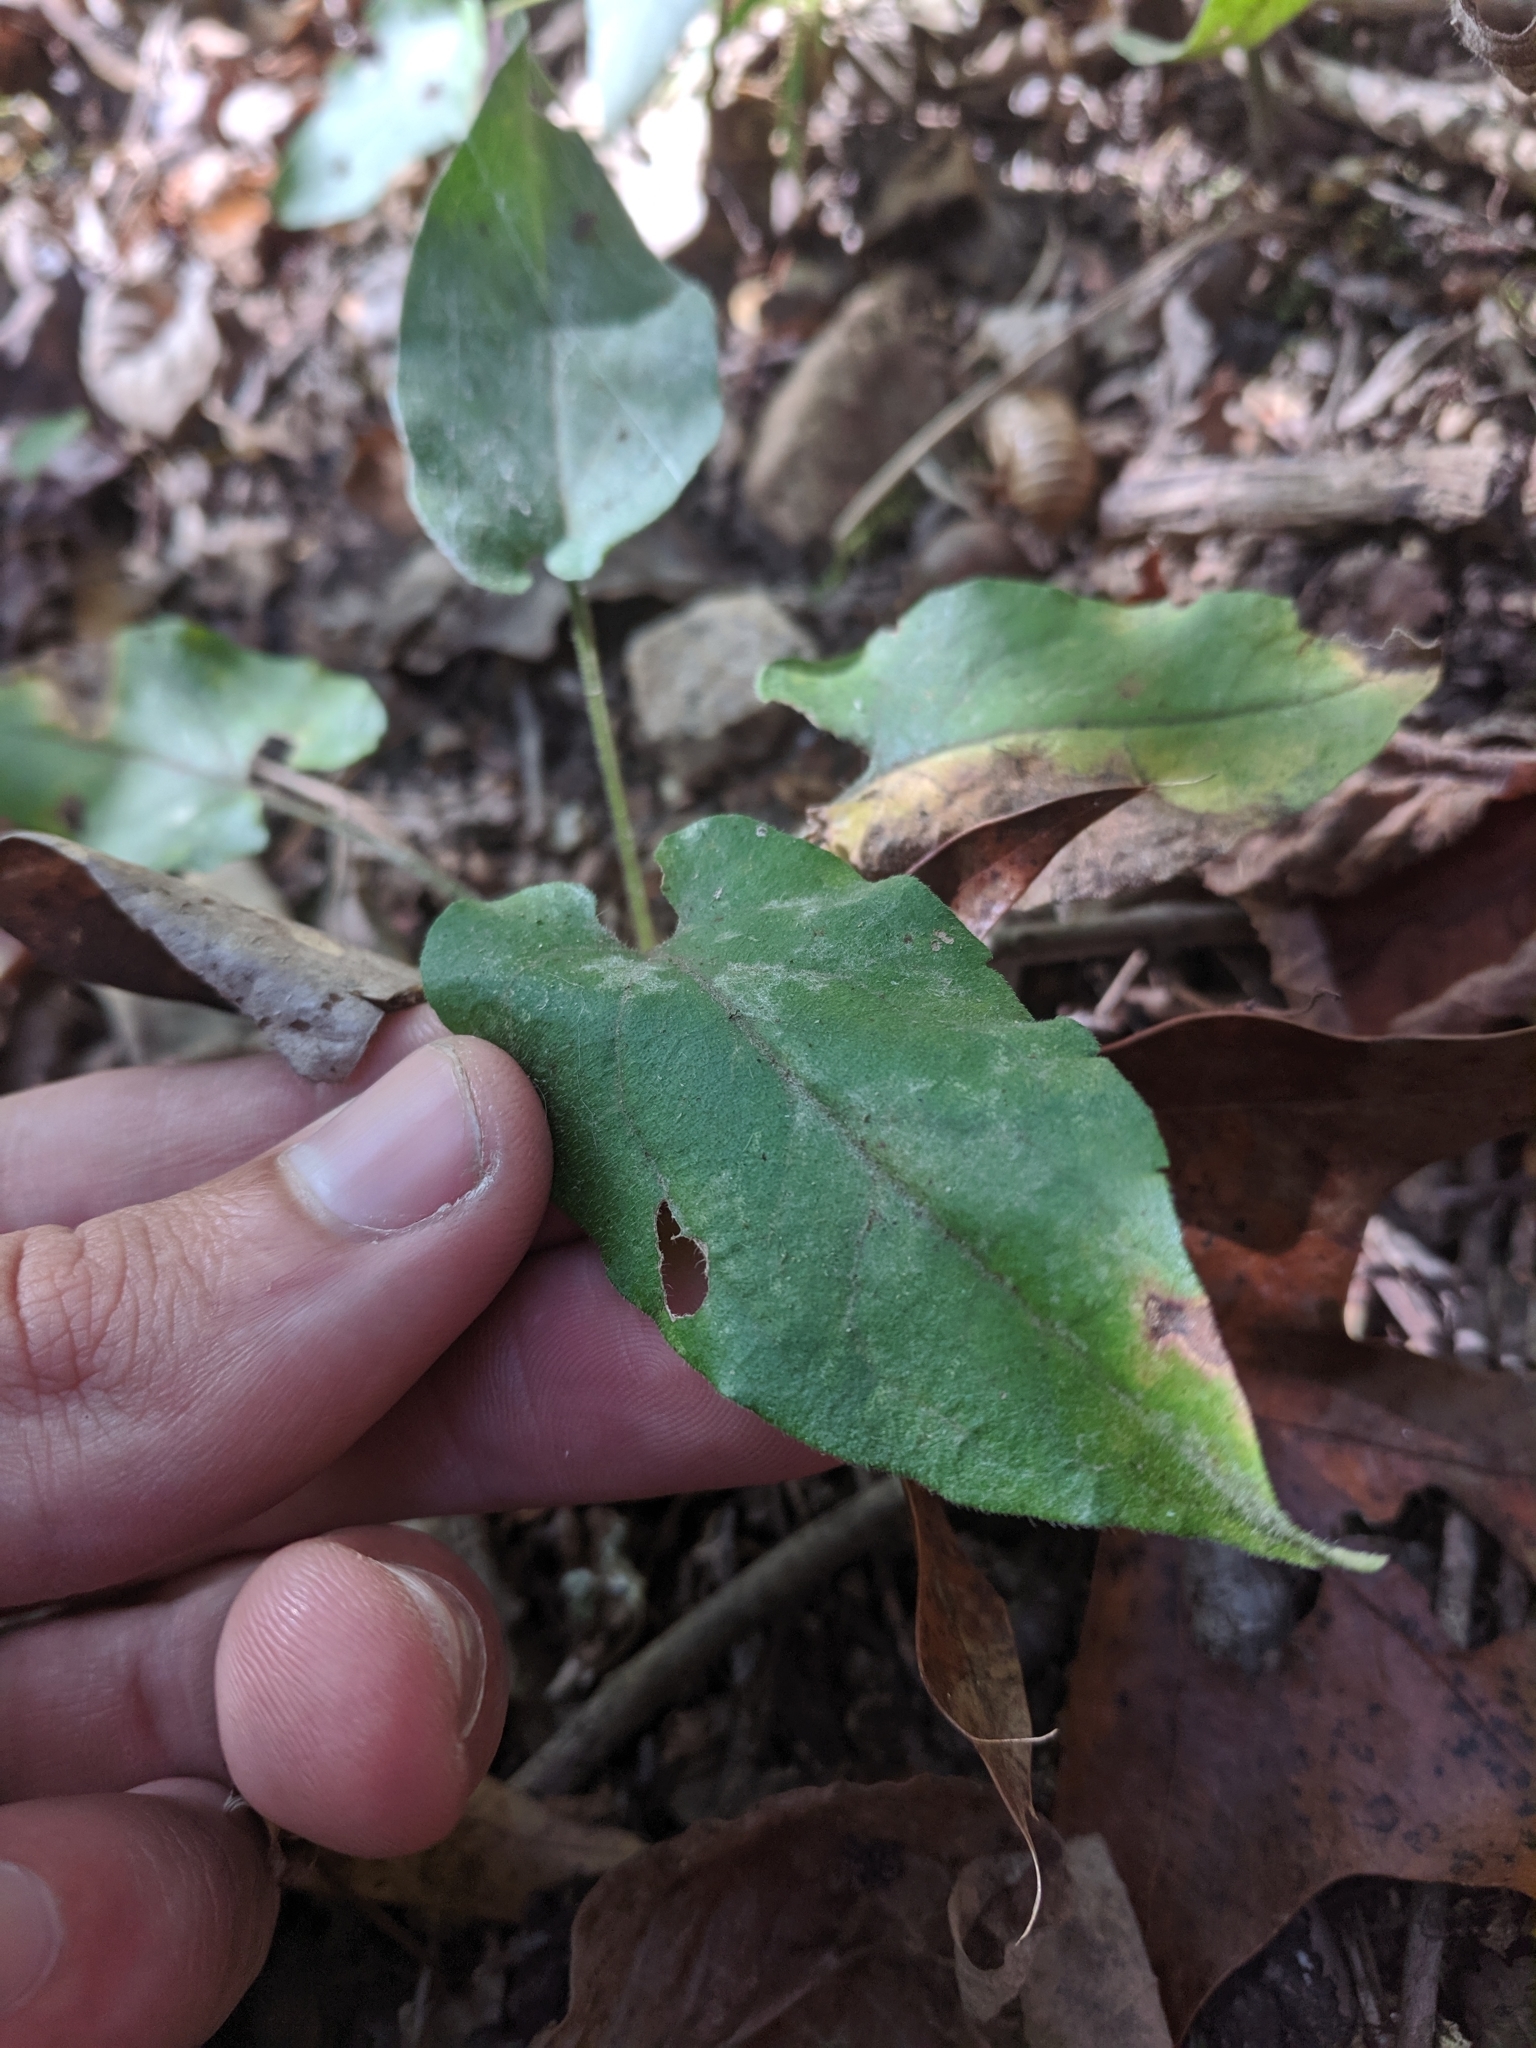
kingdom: Plantae
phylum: Tracheophyta
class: Magnoliopsida
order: Asterales
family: Asteraceae
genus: Symphyotrichum
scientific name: Symphyotrichum anomalum
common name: Many-ray aster
